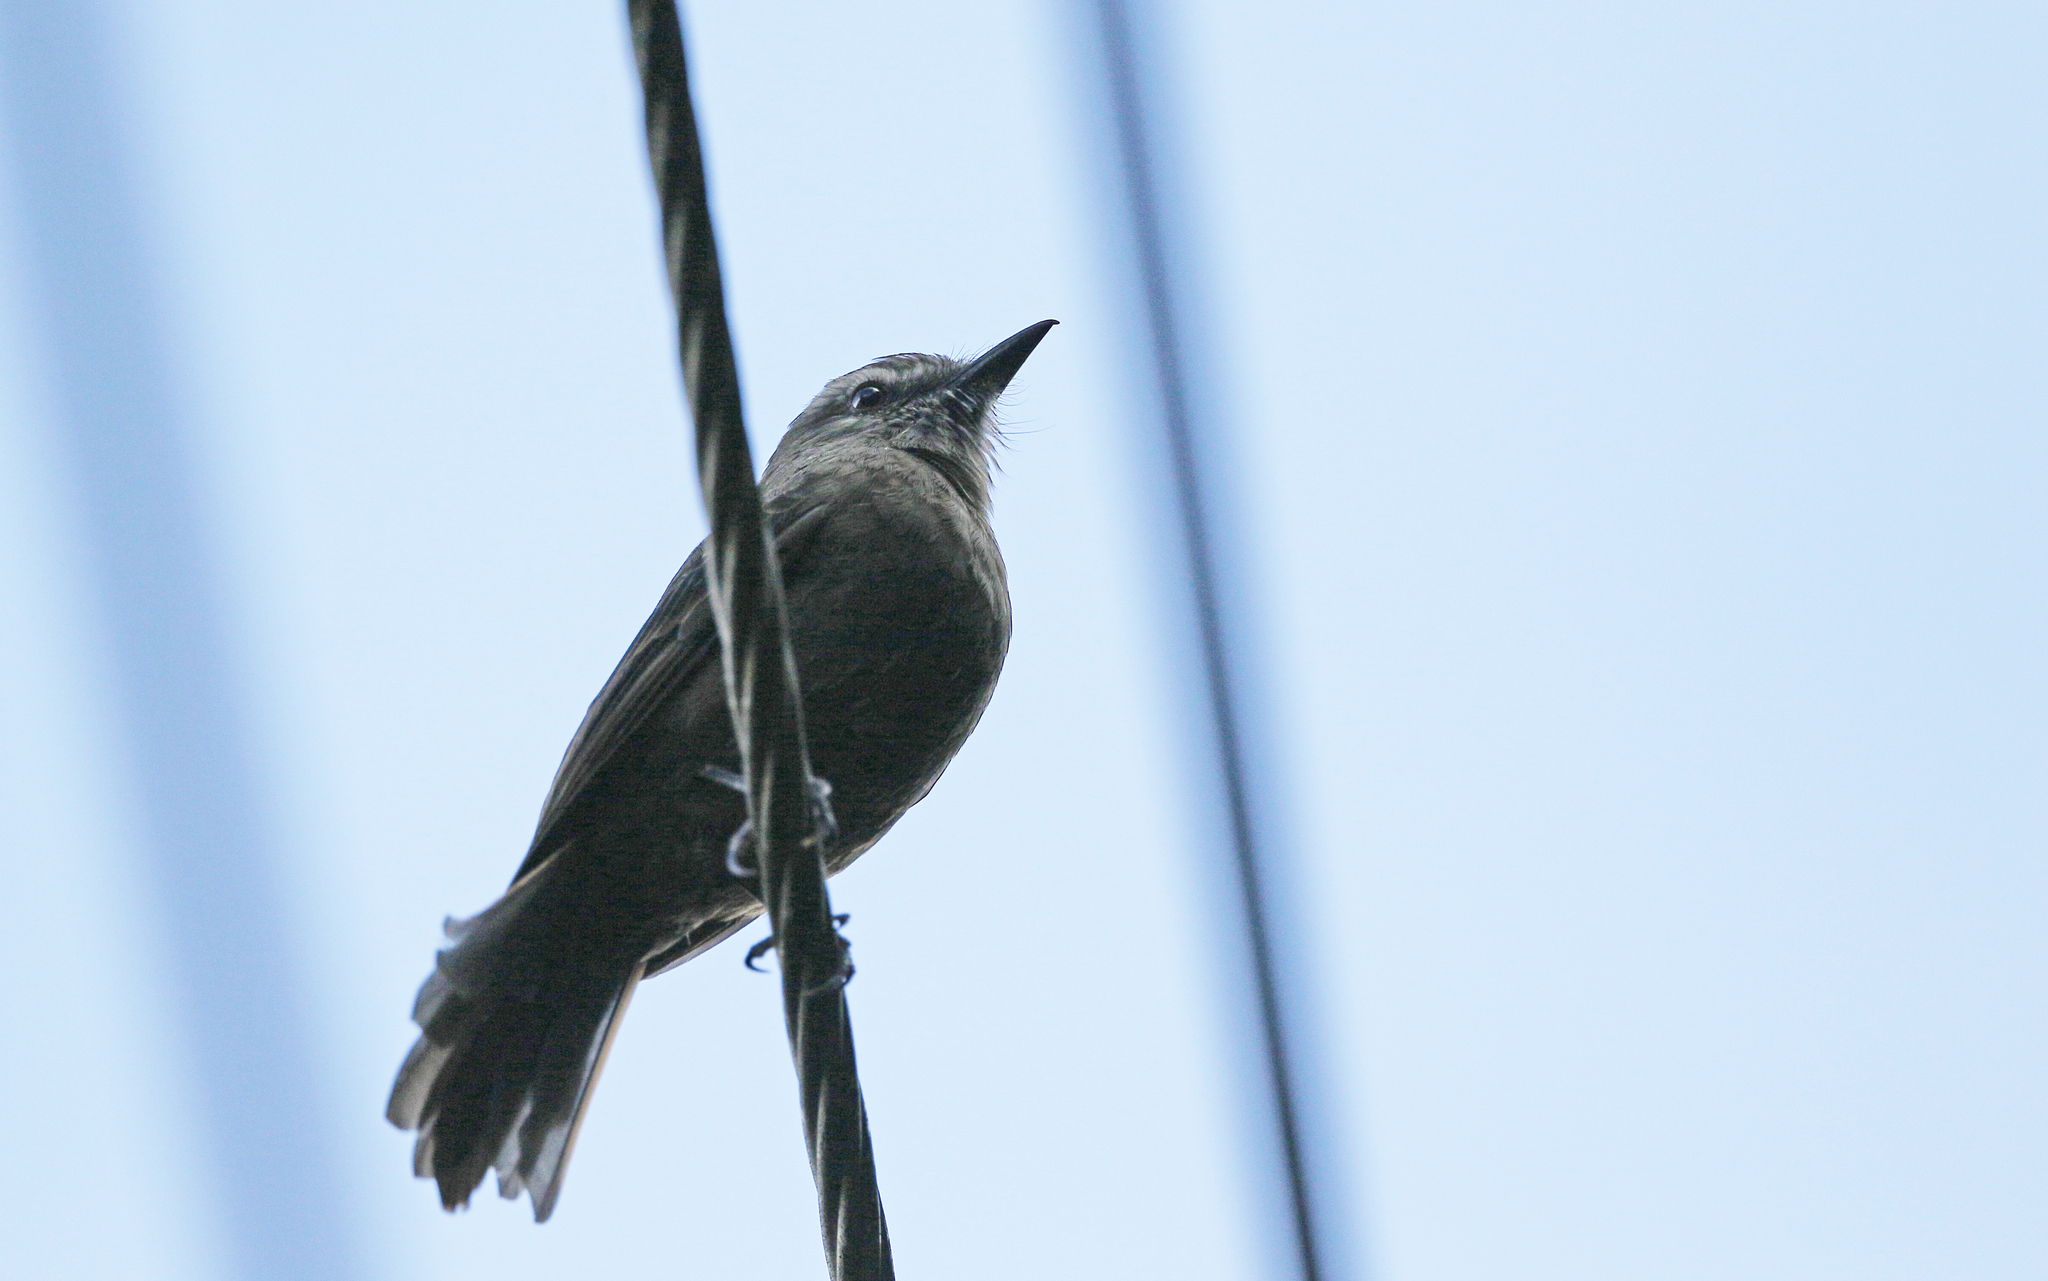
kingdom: Animalia
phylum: Chordata
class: Aves
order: Passeriformes
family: Tyrannidae
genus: Myiotheretes
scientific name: Myiotheretes fumigatus
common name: Smoky bush tyrant
